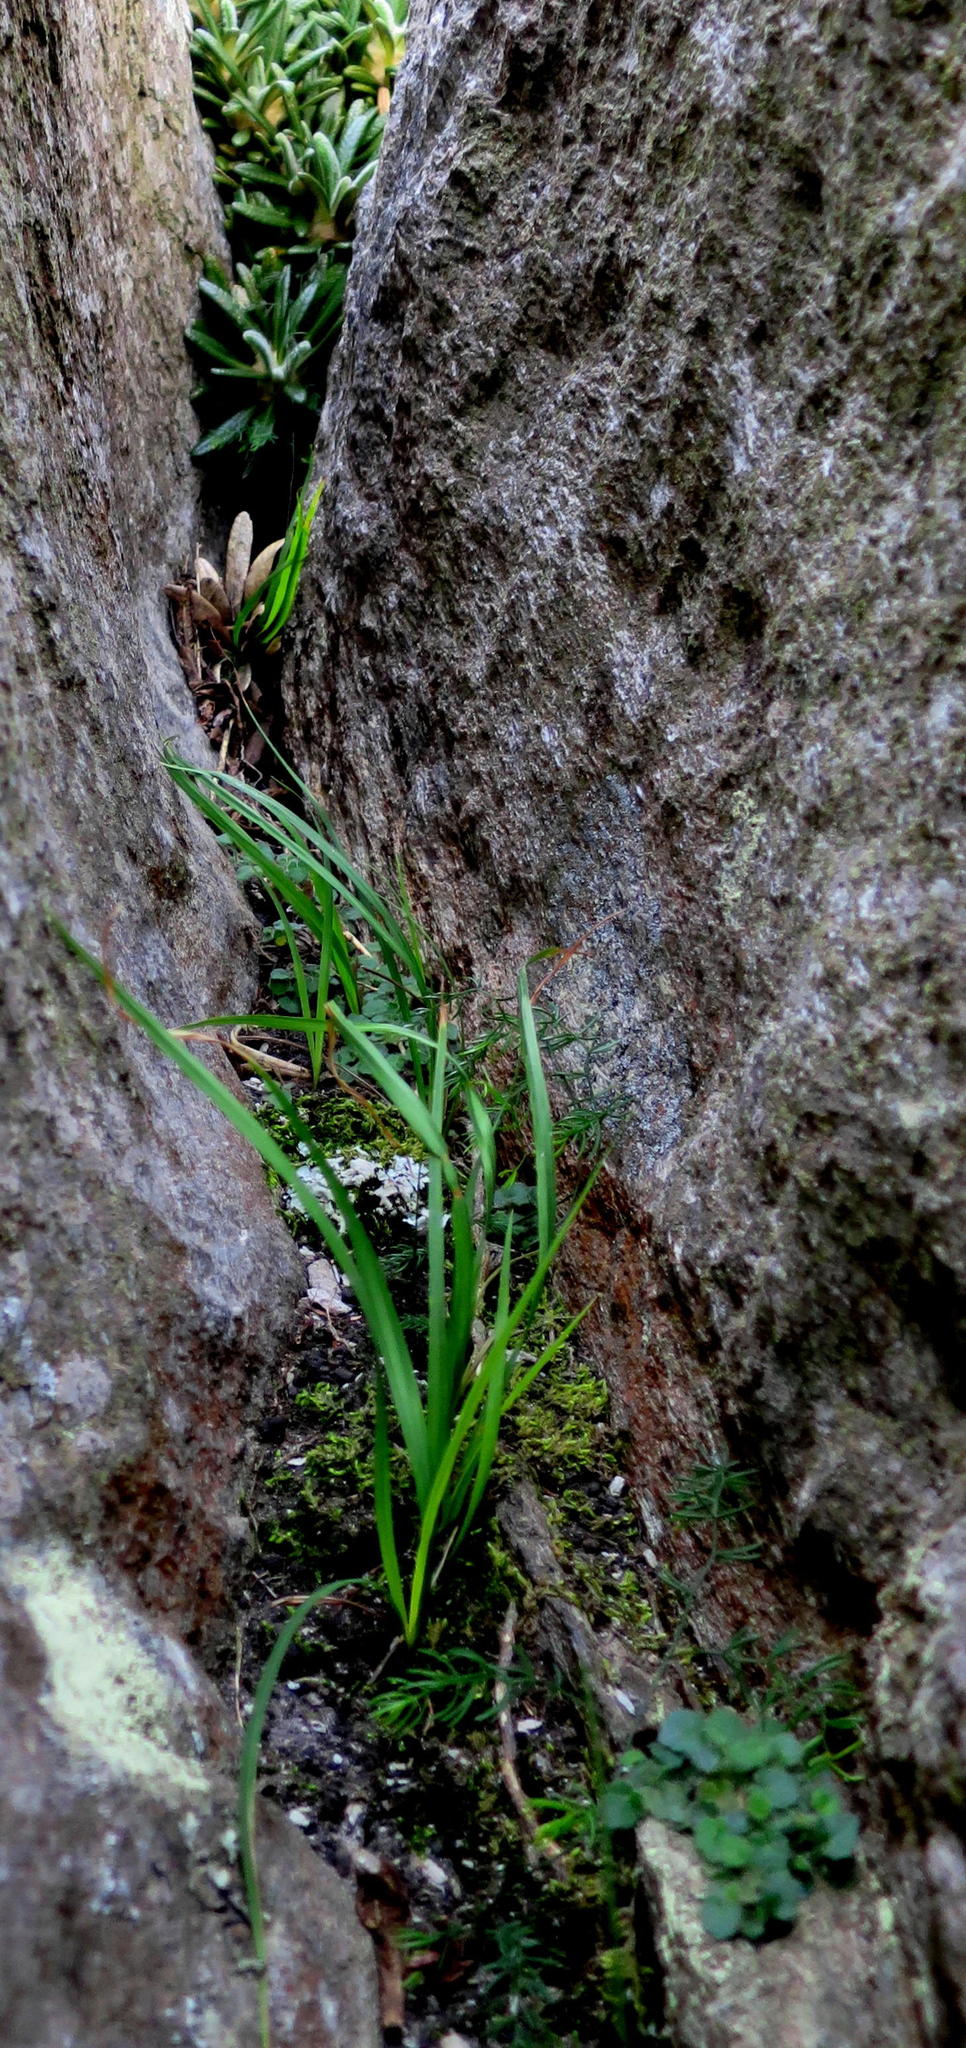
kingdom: Plantae
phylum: Tracheophyta
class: Magnoliopsida
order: Asterales
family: Campanulaceae
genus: Lobelia
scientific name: Lobelia ardisiandroides
